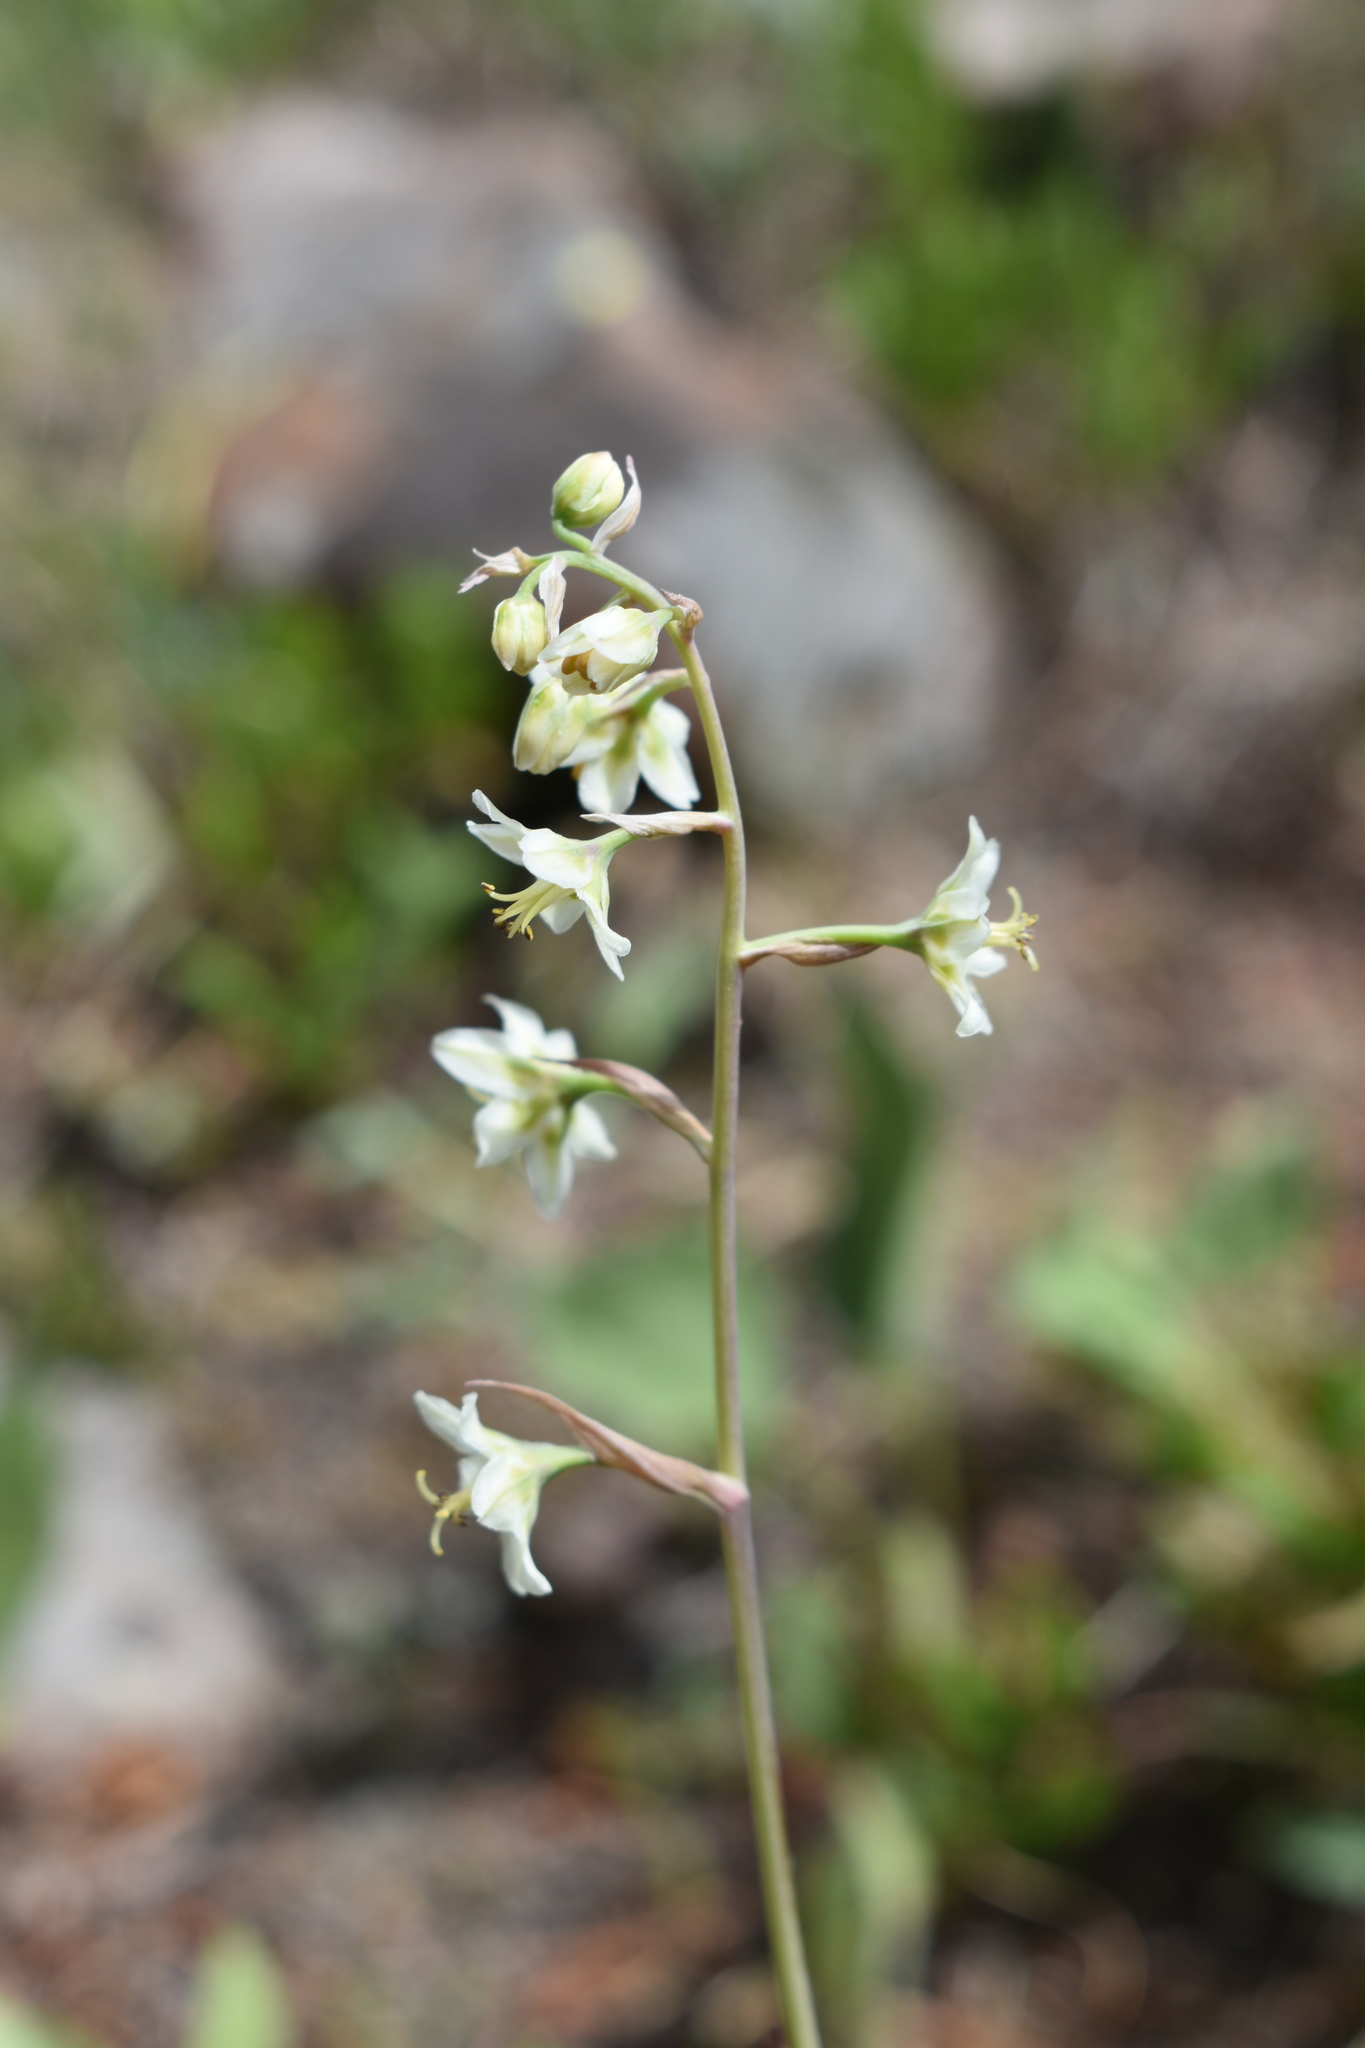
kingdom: Plantae
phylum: Tracheophyta
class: Liliopsida
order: Liliales
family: Melanthiaceae
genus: Anticlea
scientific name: Anticlea elegans
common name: Mountain death camas
